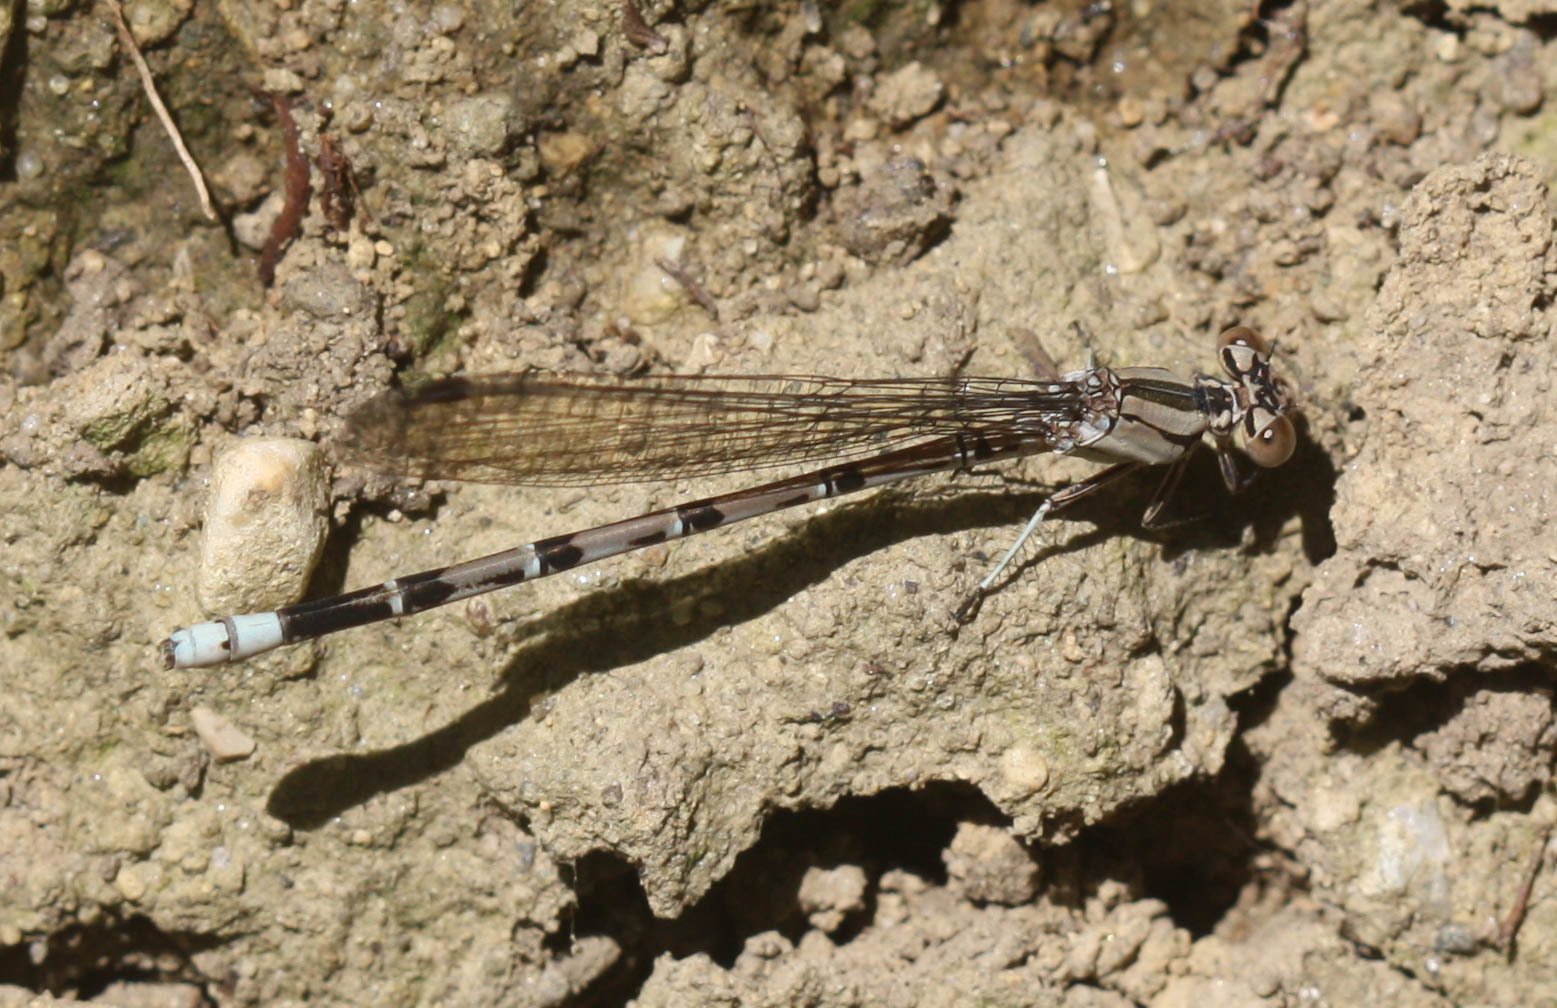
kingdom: Animalia
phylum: Arthropoda
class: Insecta
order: Odonata
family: Coenagrionidae
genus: Argia
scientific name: Argia funebris
